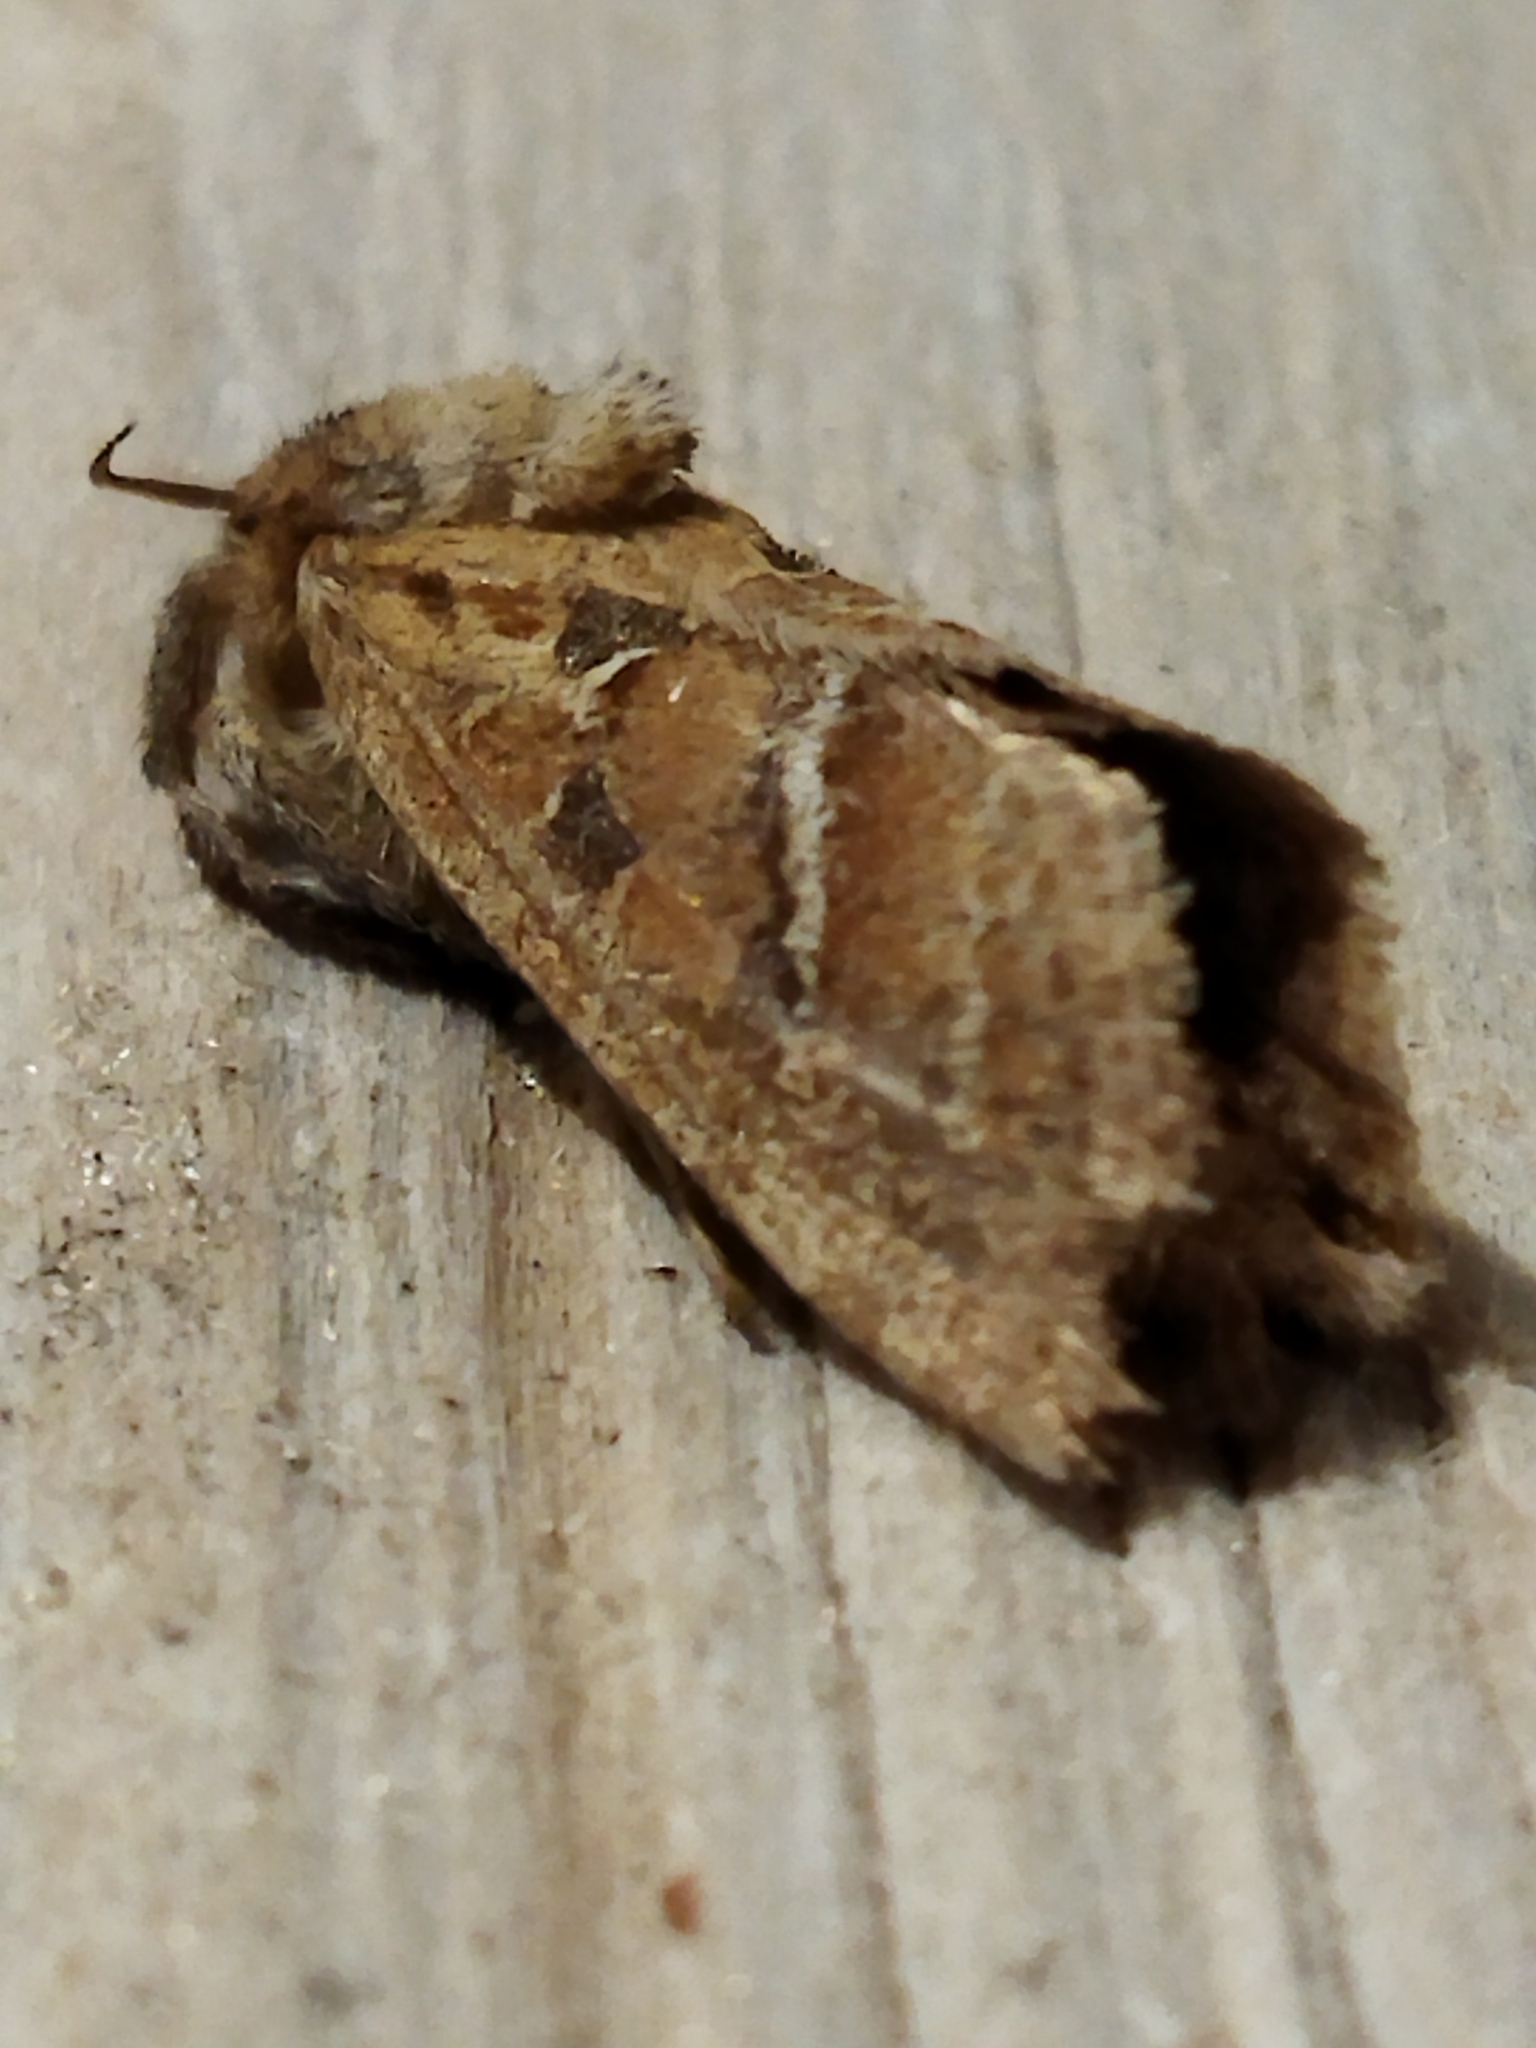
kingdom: Animalia
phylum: Arthropoda
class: Insecta
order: Lepidoptera
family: Hepialidae
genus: Triodia
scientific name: Triodia amasinus
